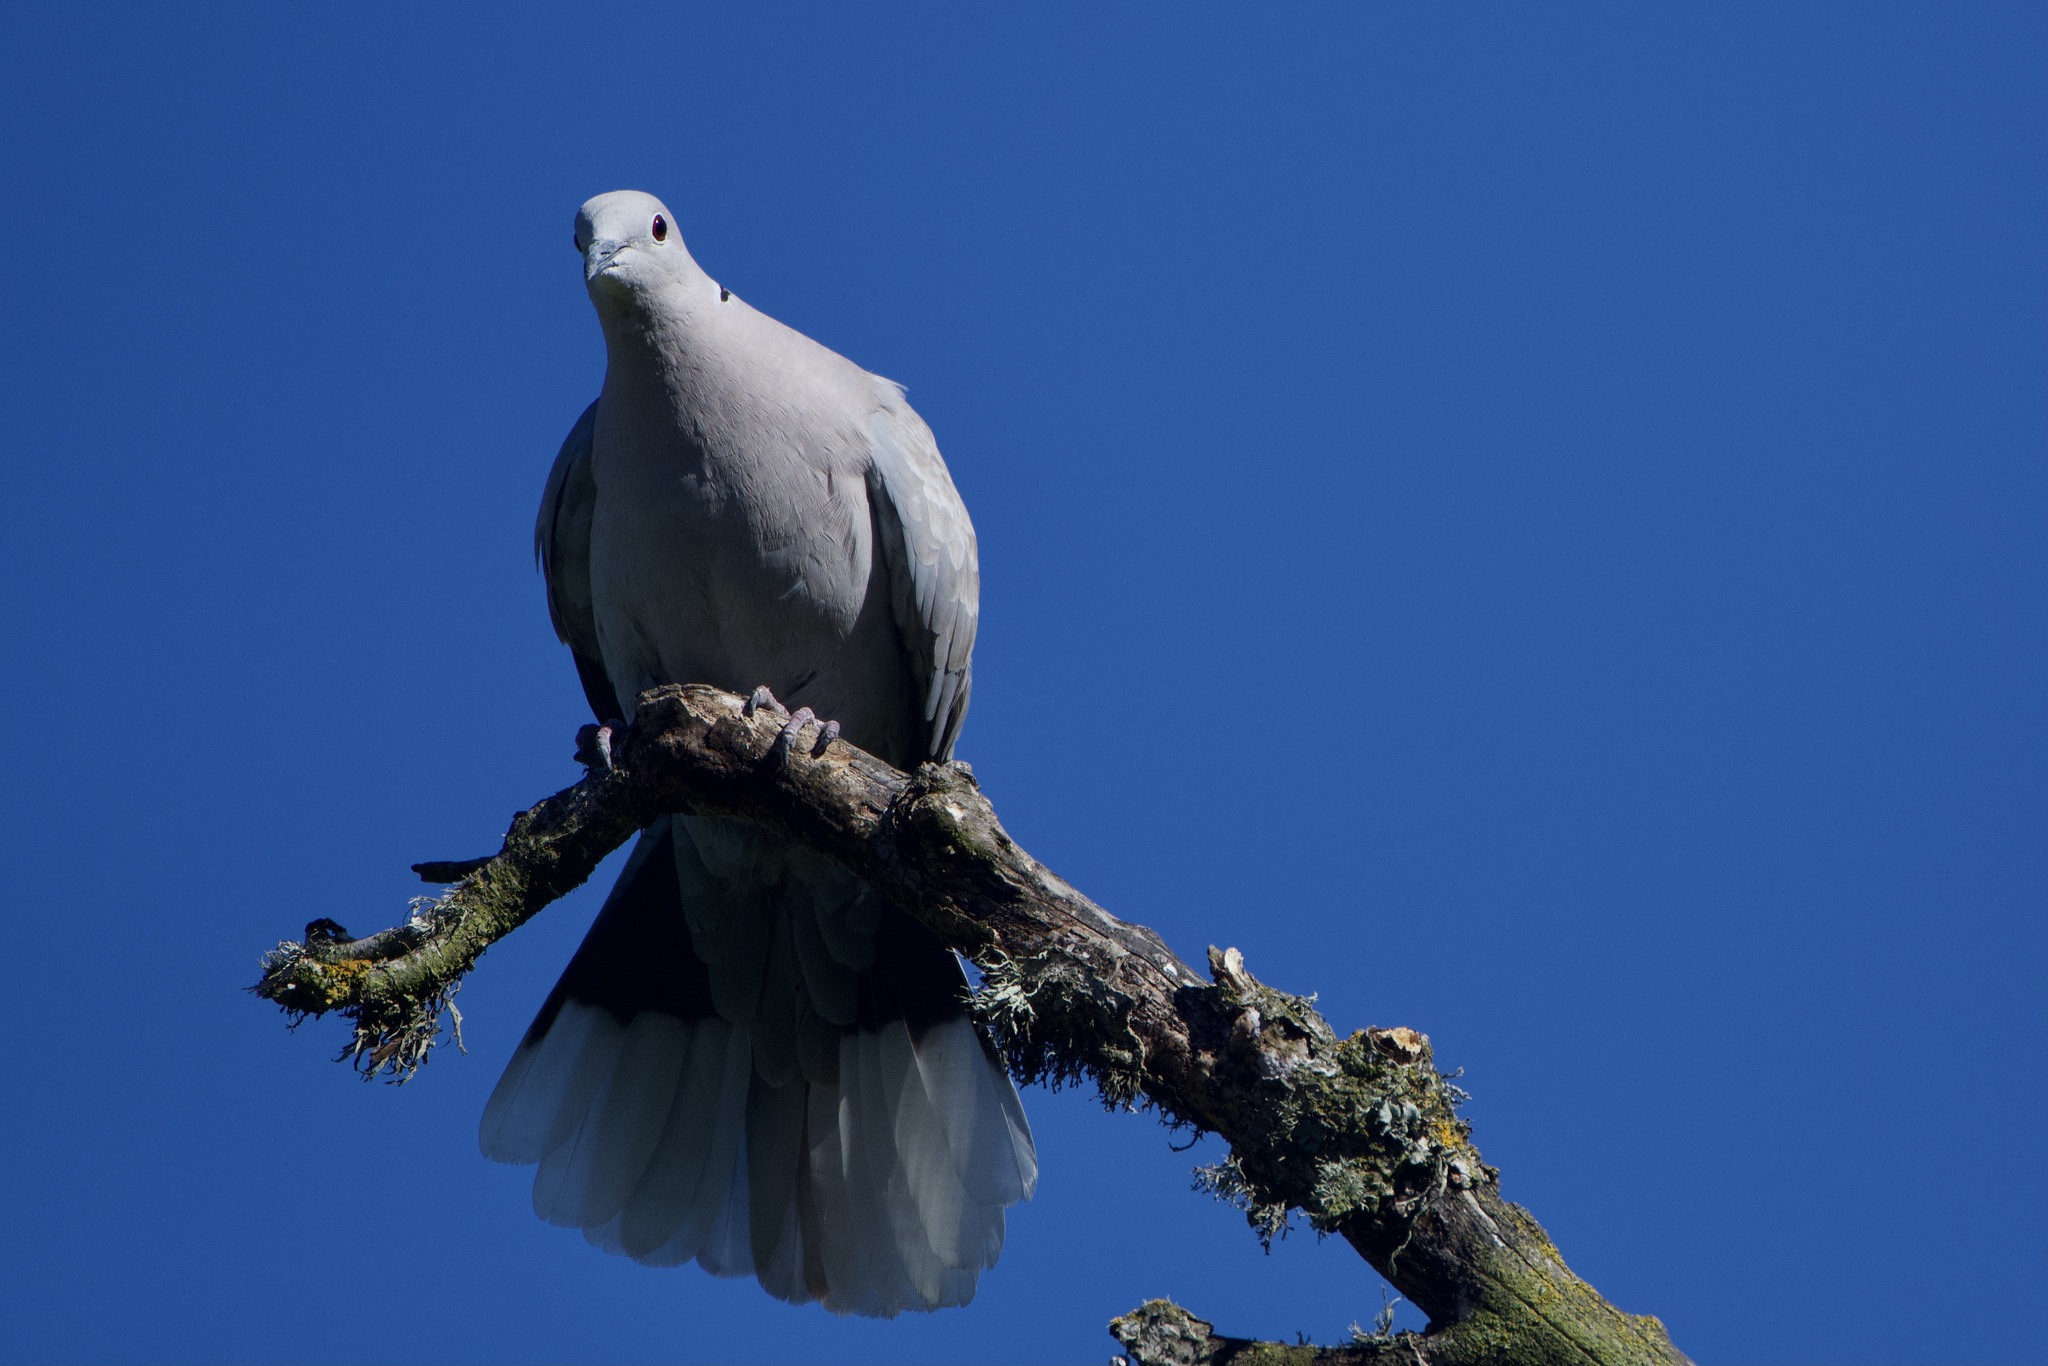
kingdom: Animalia
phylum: Chordata
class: Aves
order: Columbiformes
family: Columbidae
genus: Streptopelia
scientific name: Streptopelia decaocto
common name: Eurasian collared dove
